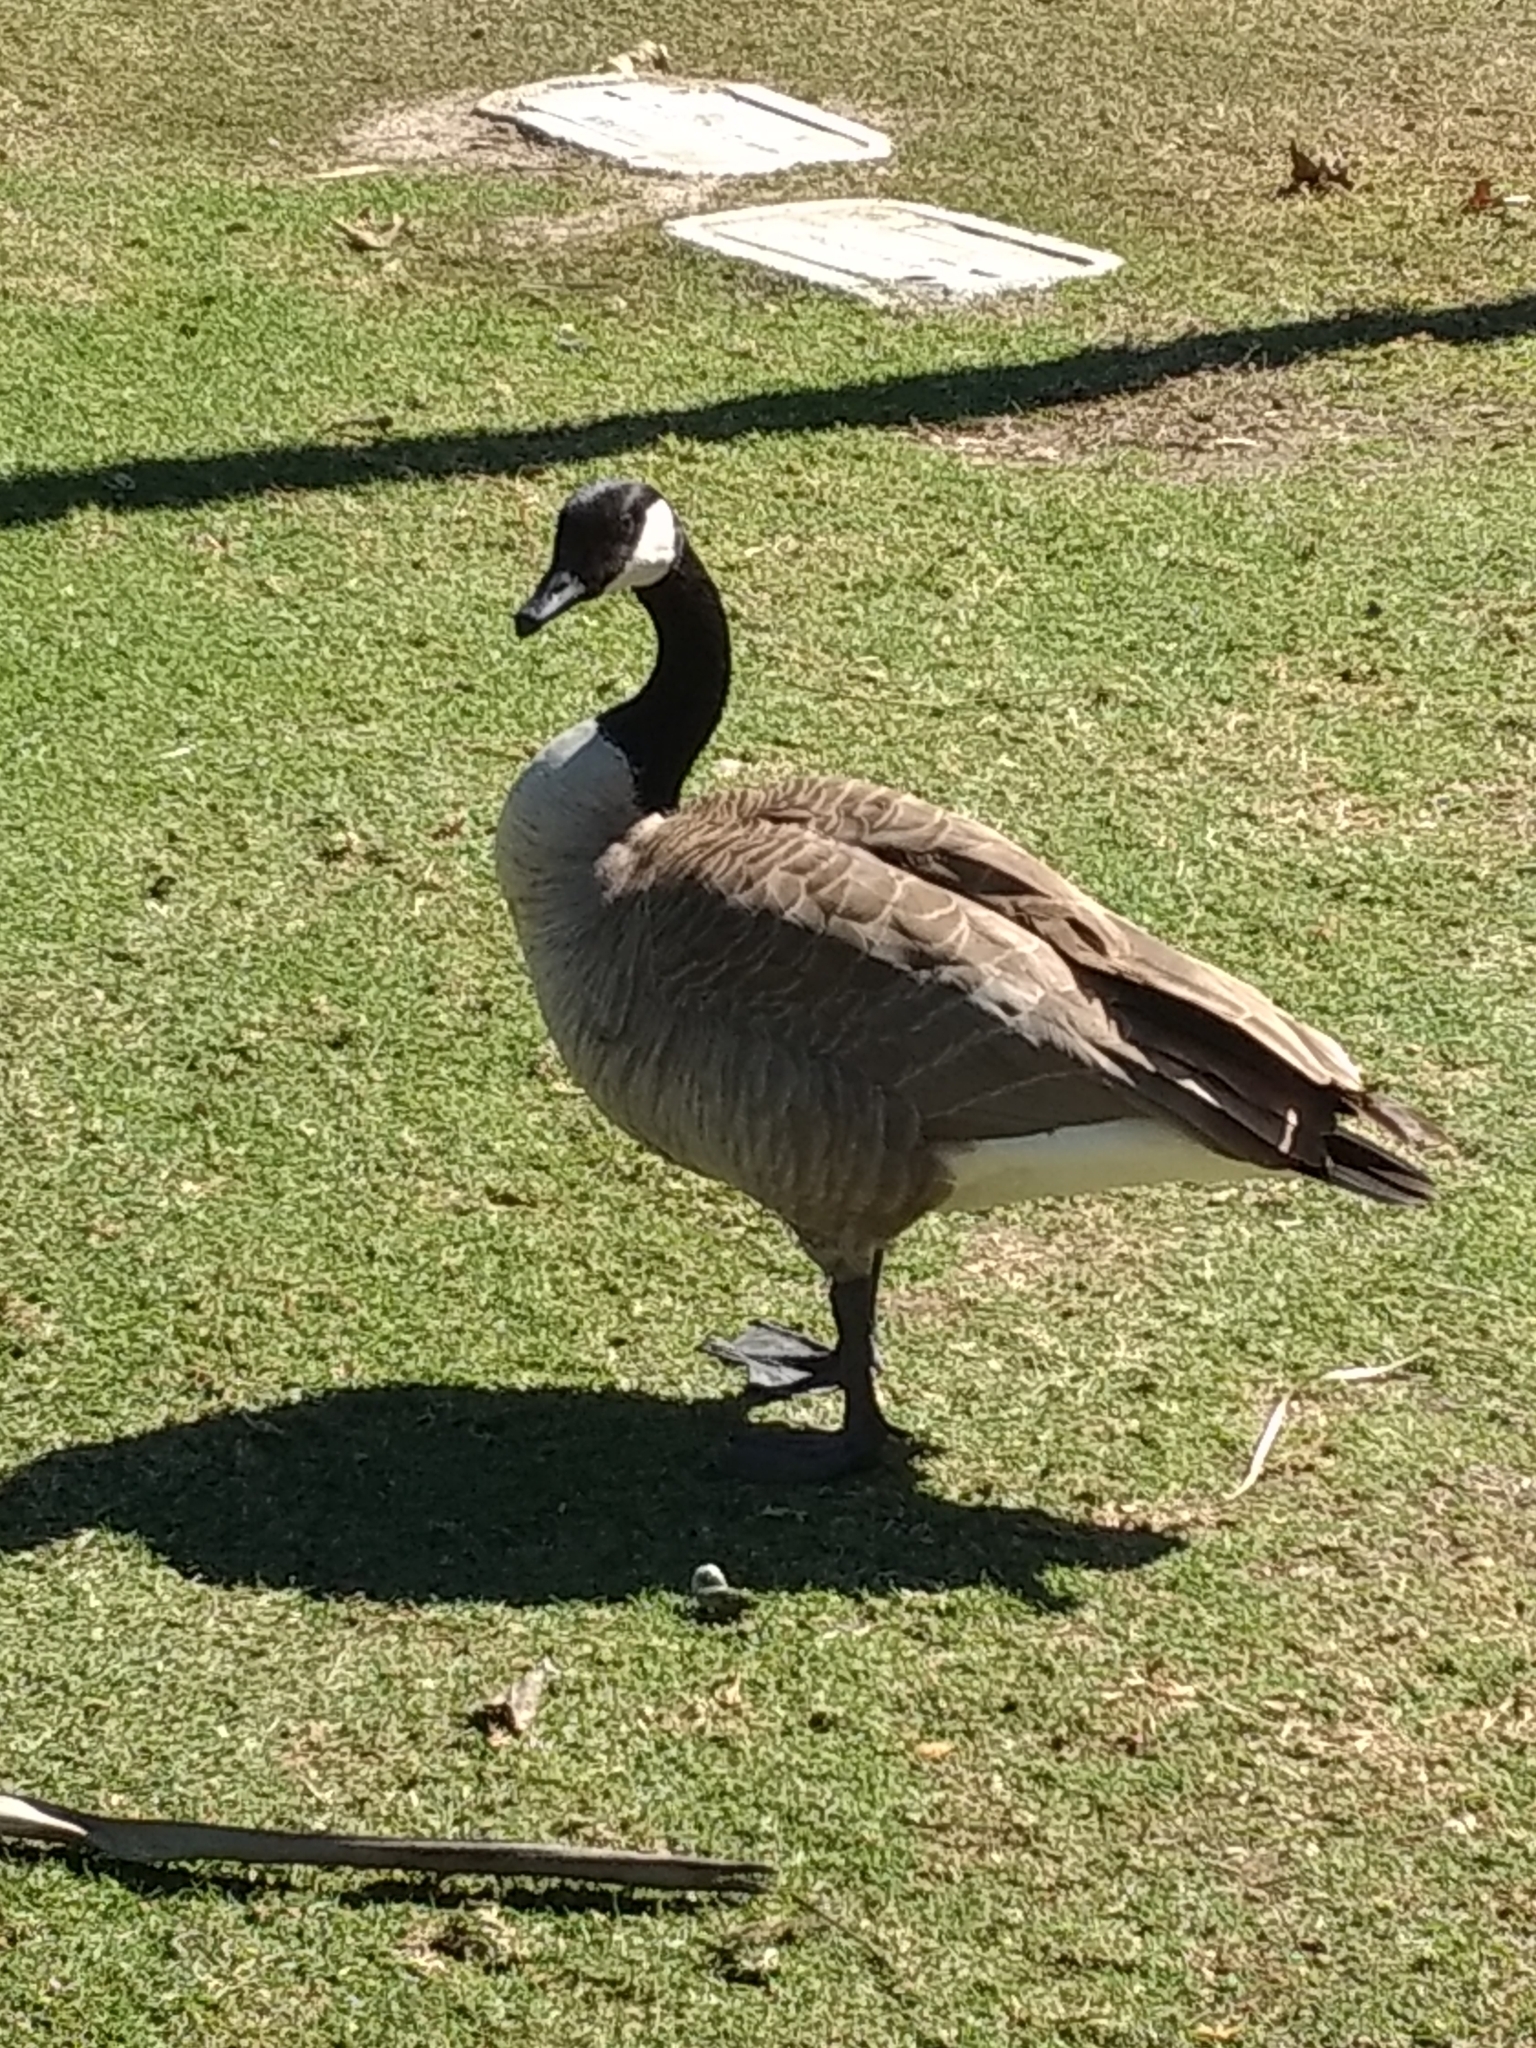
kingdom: Animalia
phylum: Chordata
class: Aves
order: Anseriformes
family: Anatidae
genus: Branta
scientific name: Branta canadensis
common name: Canada goose
